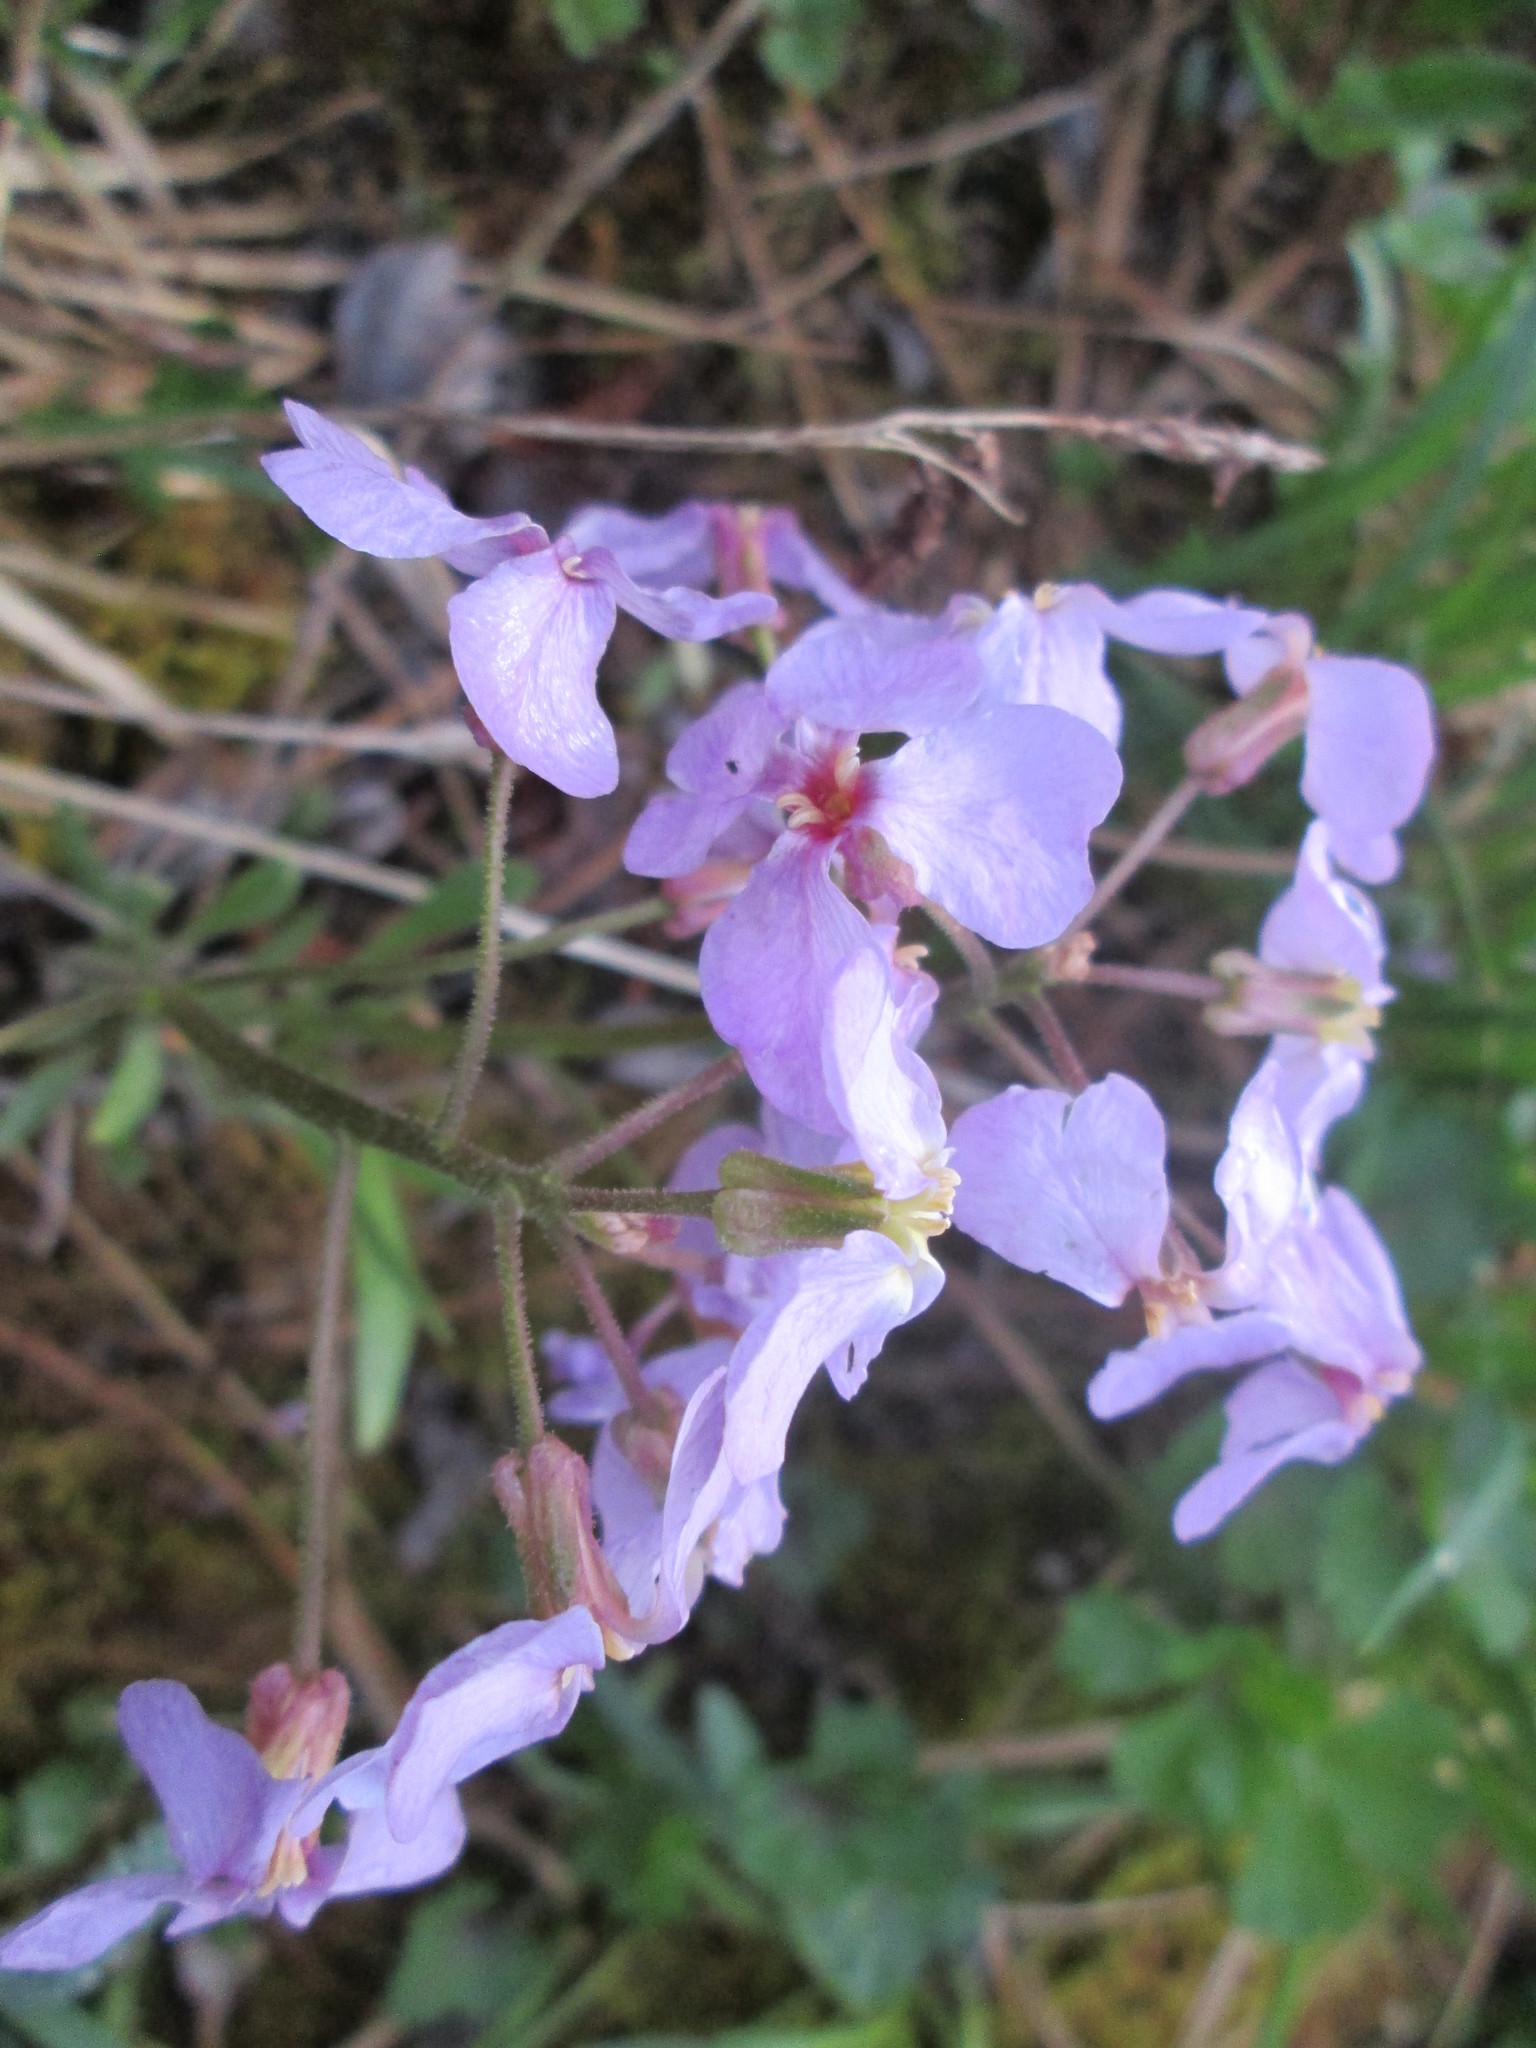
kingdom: Plantae
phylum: Tracheophyta
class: Magnoliopsida
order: Brassicales
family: Brassicaceae
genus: Parrya
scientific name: Parrya nudicaulis
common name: Naked-stemmed false wallflower
